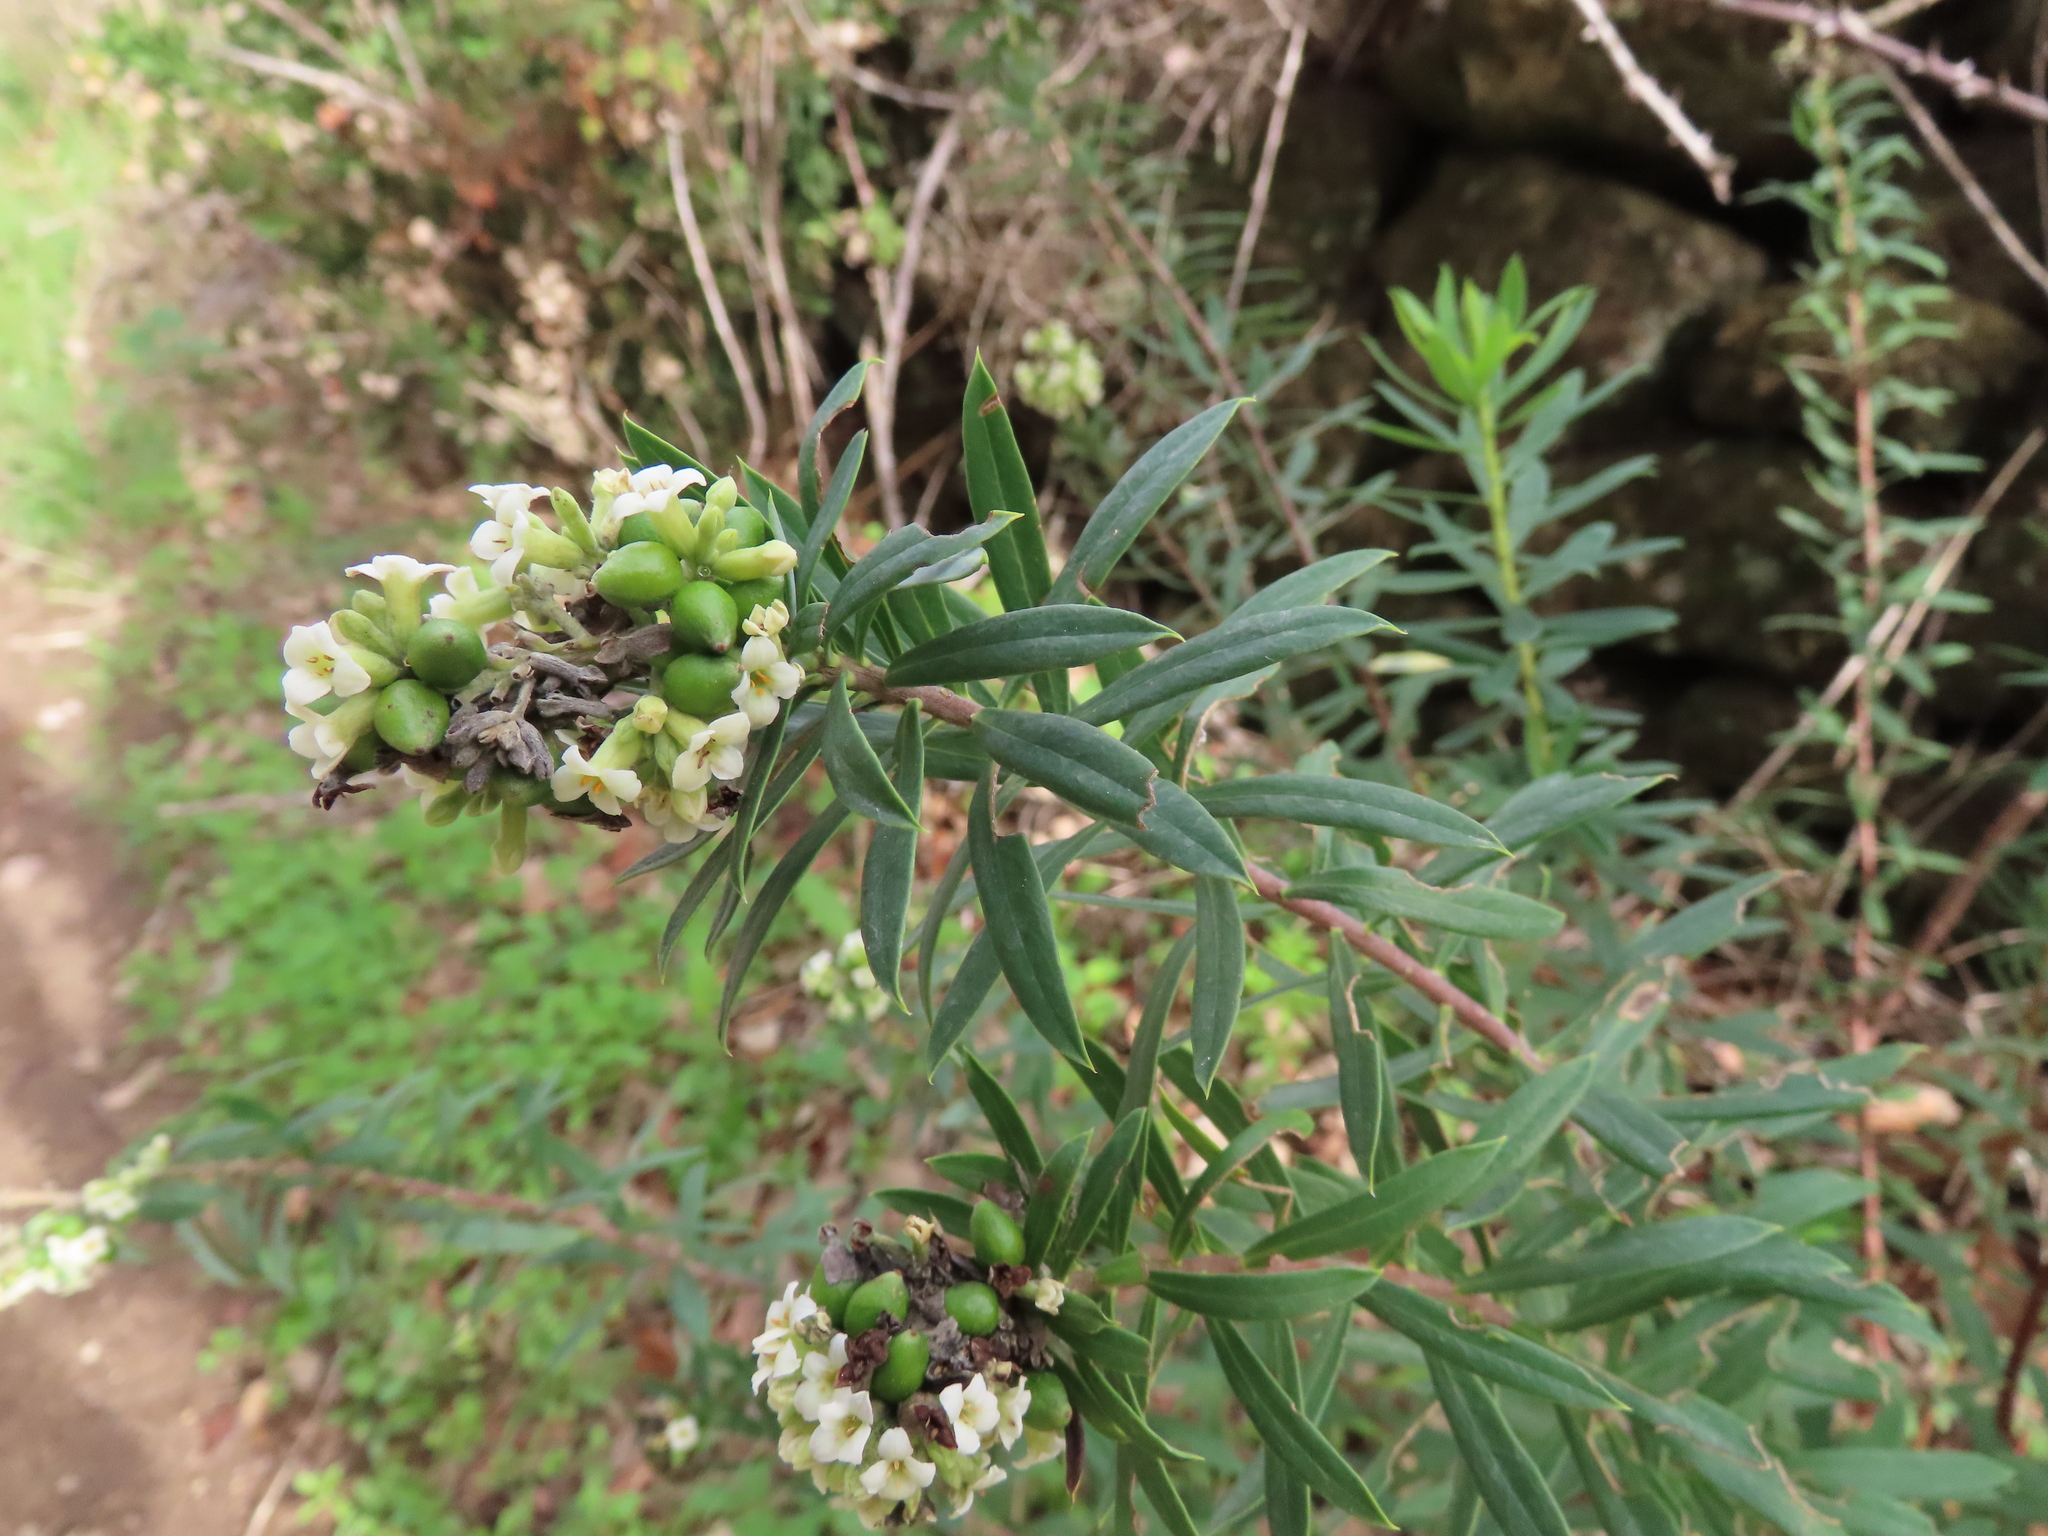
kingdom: Plantae
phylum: Tracheophyta
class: Magnoliopsida
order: Malvales
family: Thymelaeaceae
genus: Daphne
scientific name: Daphne gnidium
